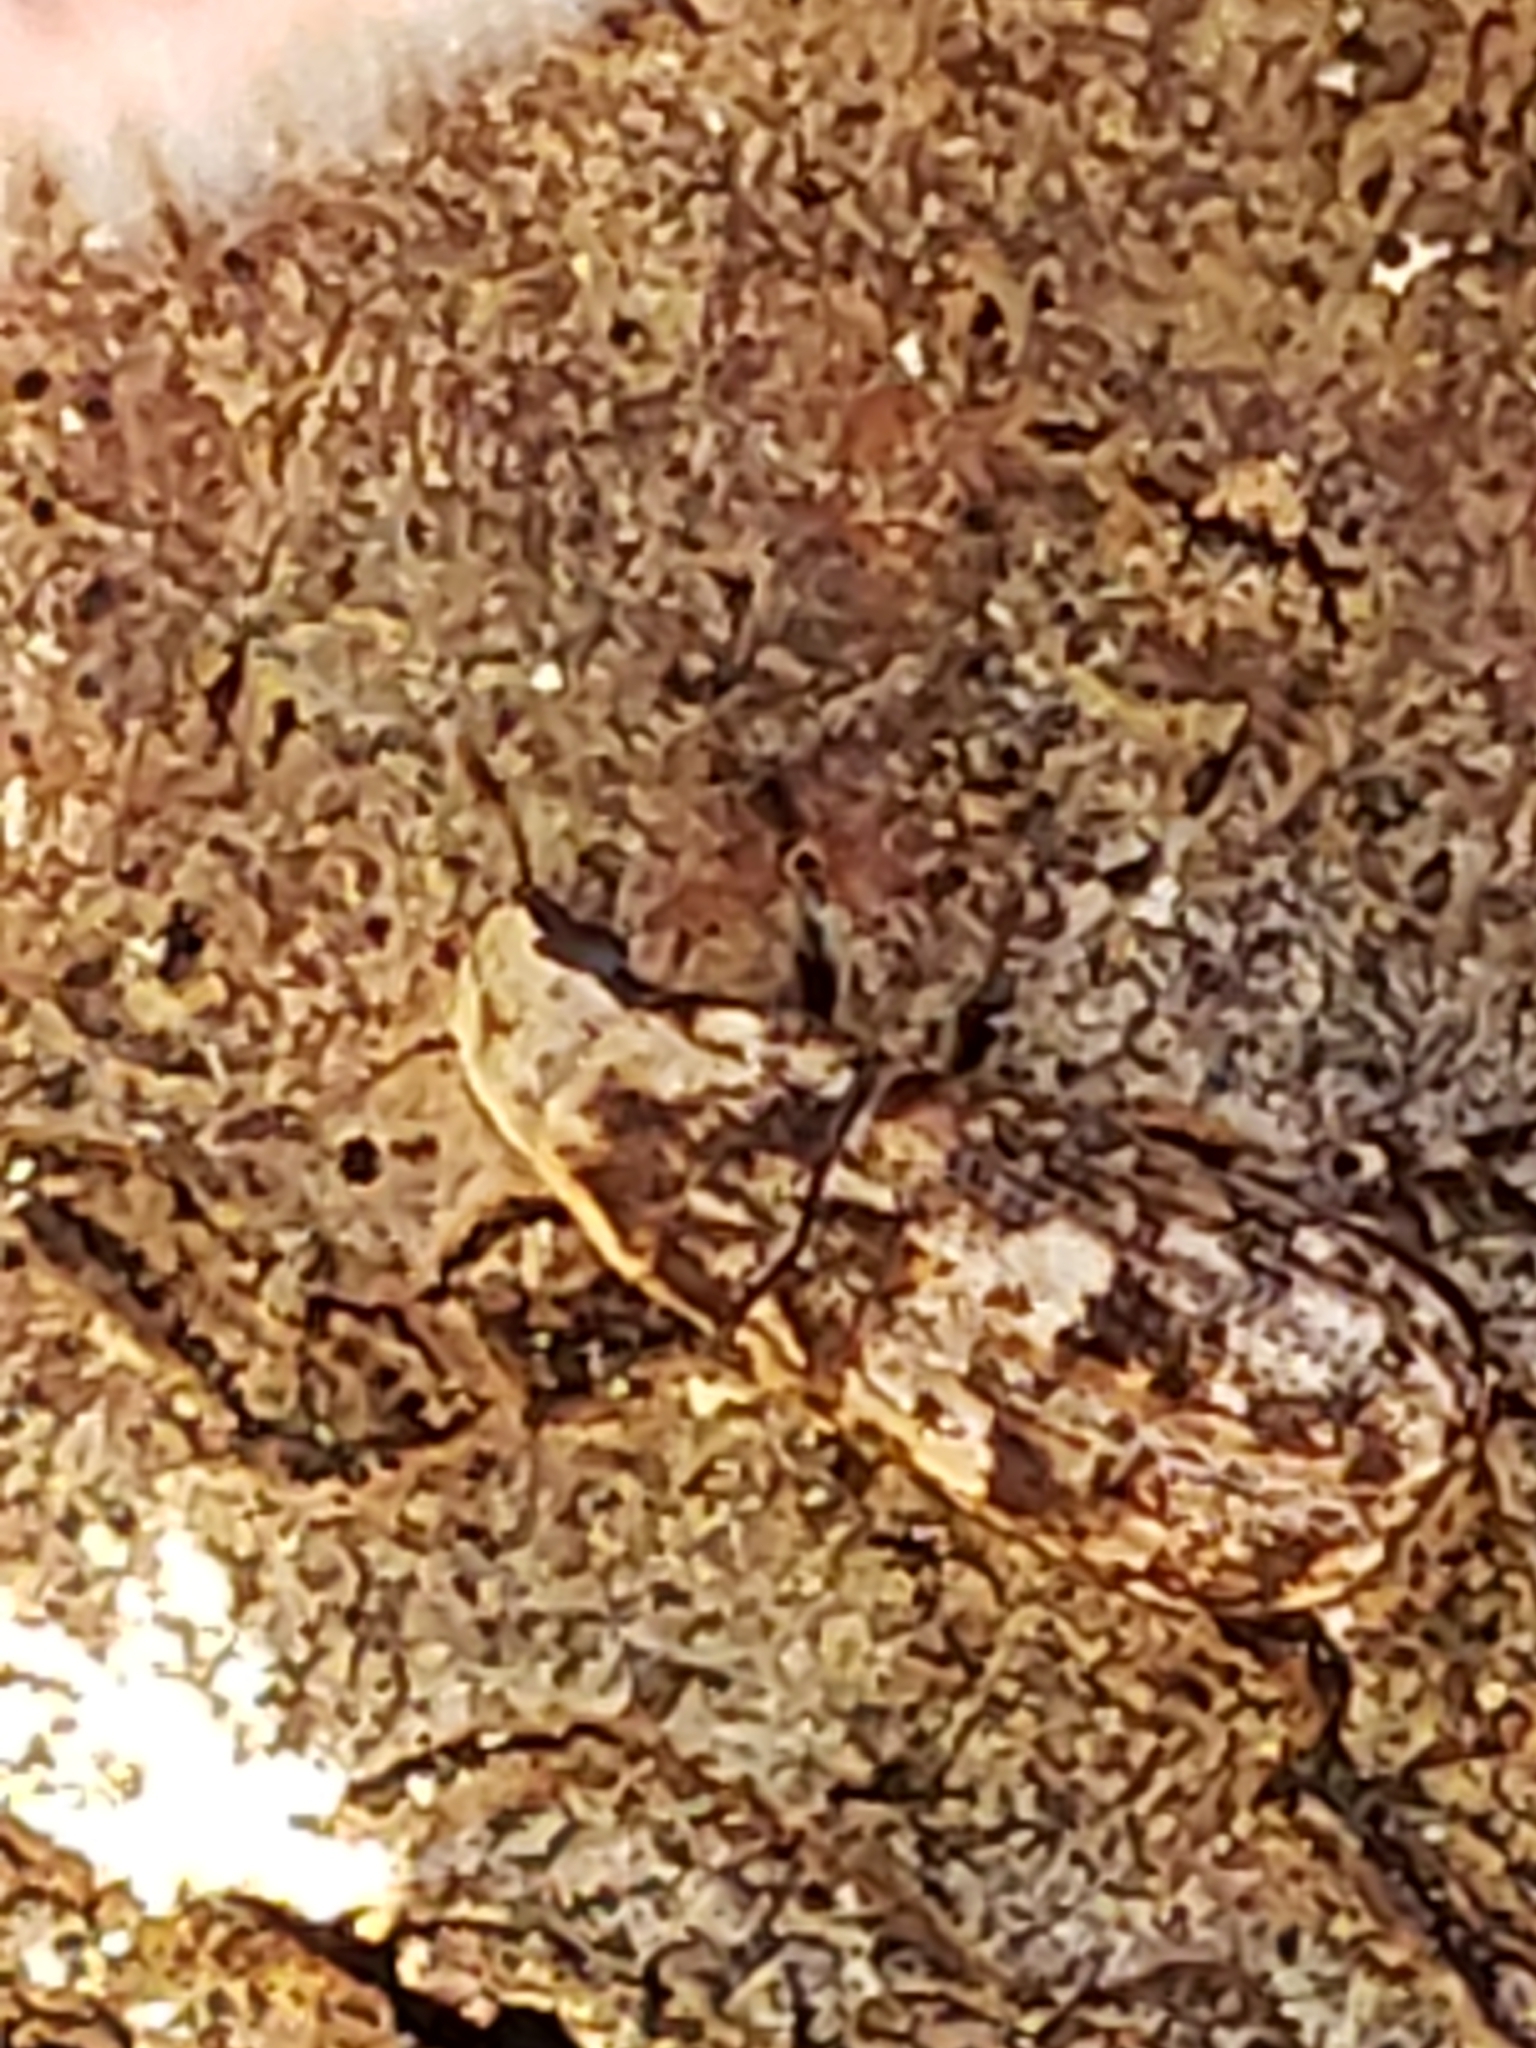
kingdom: Animalia
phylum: Arthropoda
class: Insecta
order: Coleoptera
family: Anthribidae
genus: Euparius
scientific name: Euparius marmoreus
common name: Marbled fungus weevil
